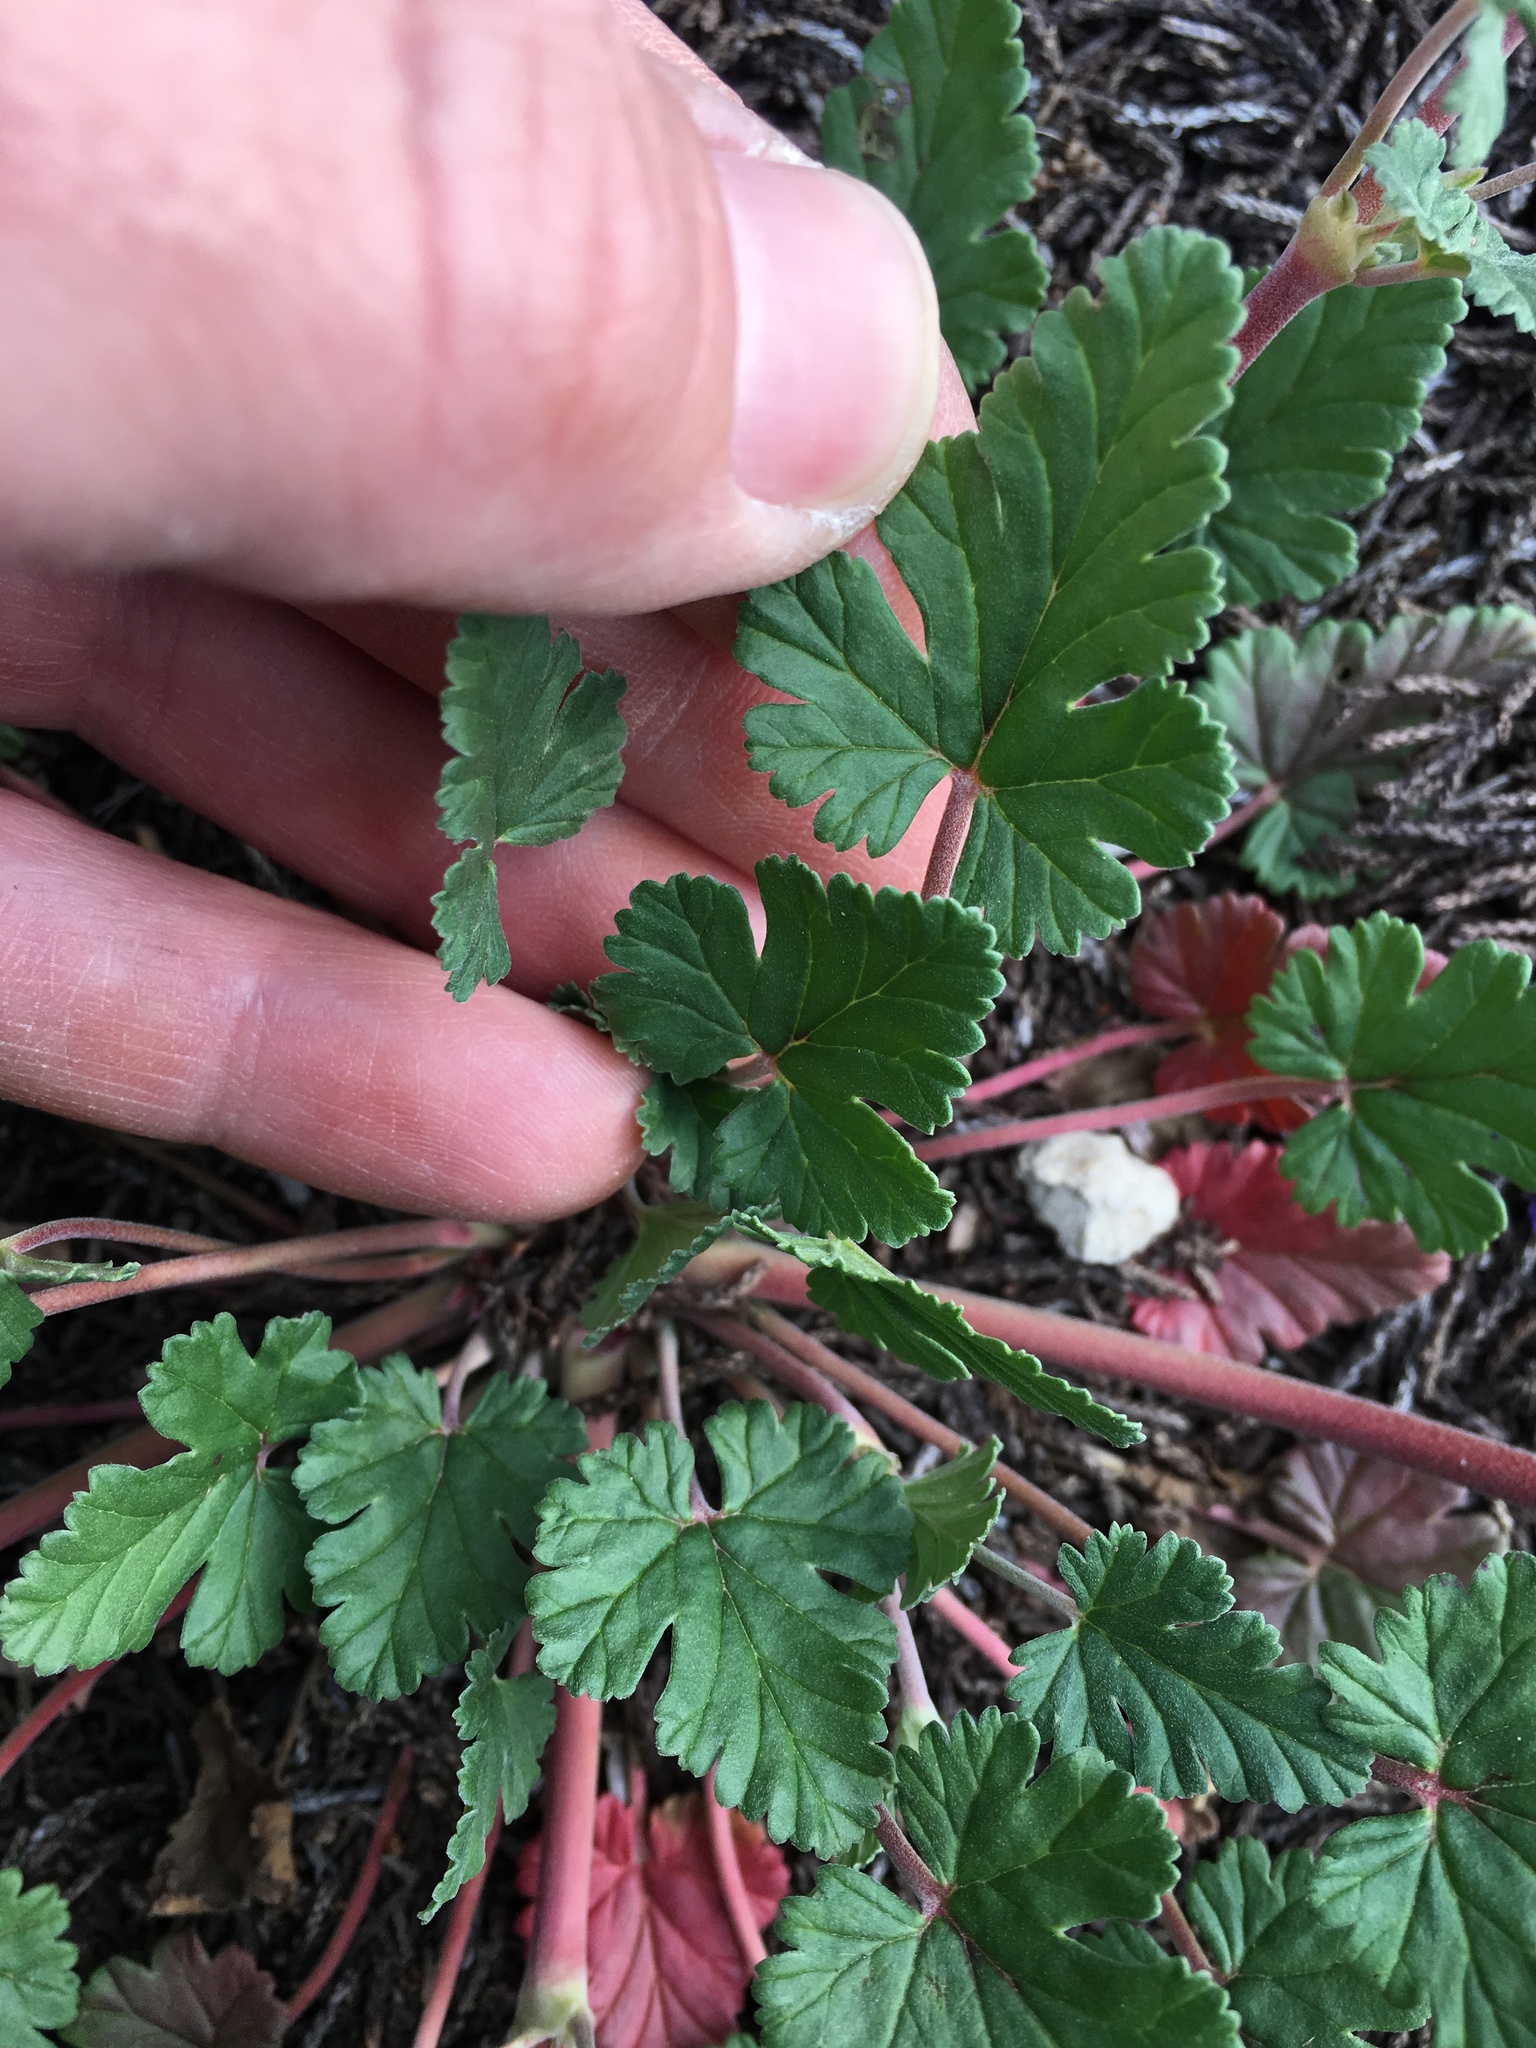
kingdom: Plantae
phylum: Tracheophyta
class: Magnoliopsida
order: Geraniales
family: Geraniaceae
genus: Erodium
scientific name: Erodium texanum
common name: Texas stork's-bill
